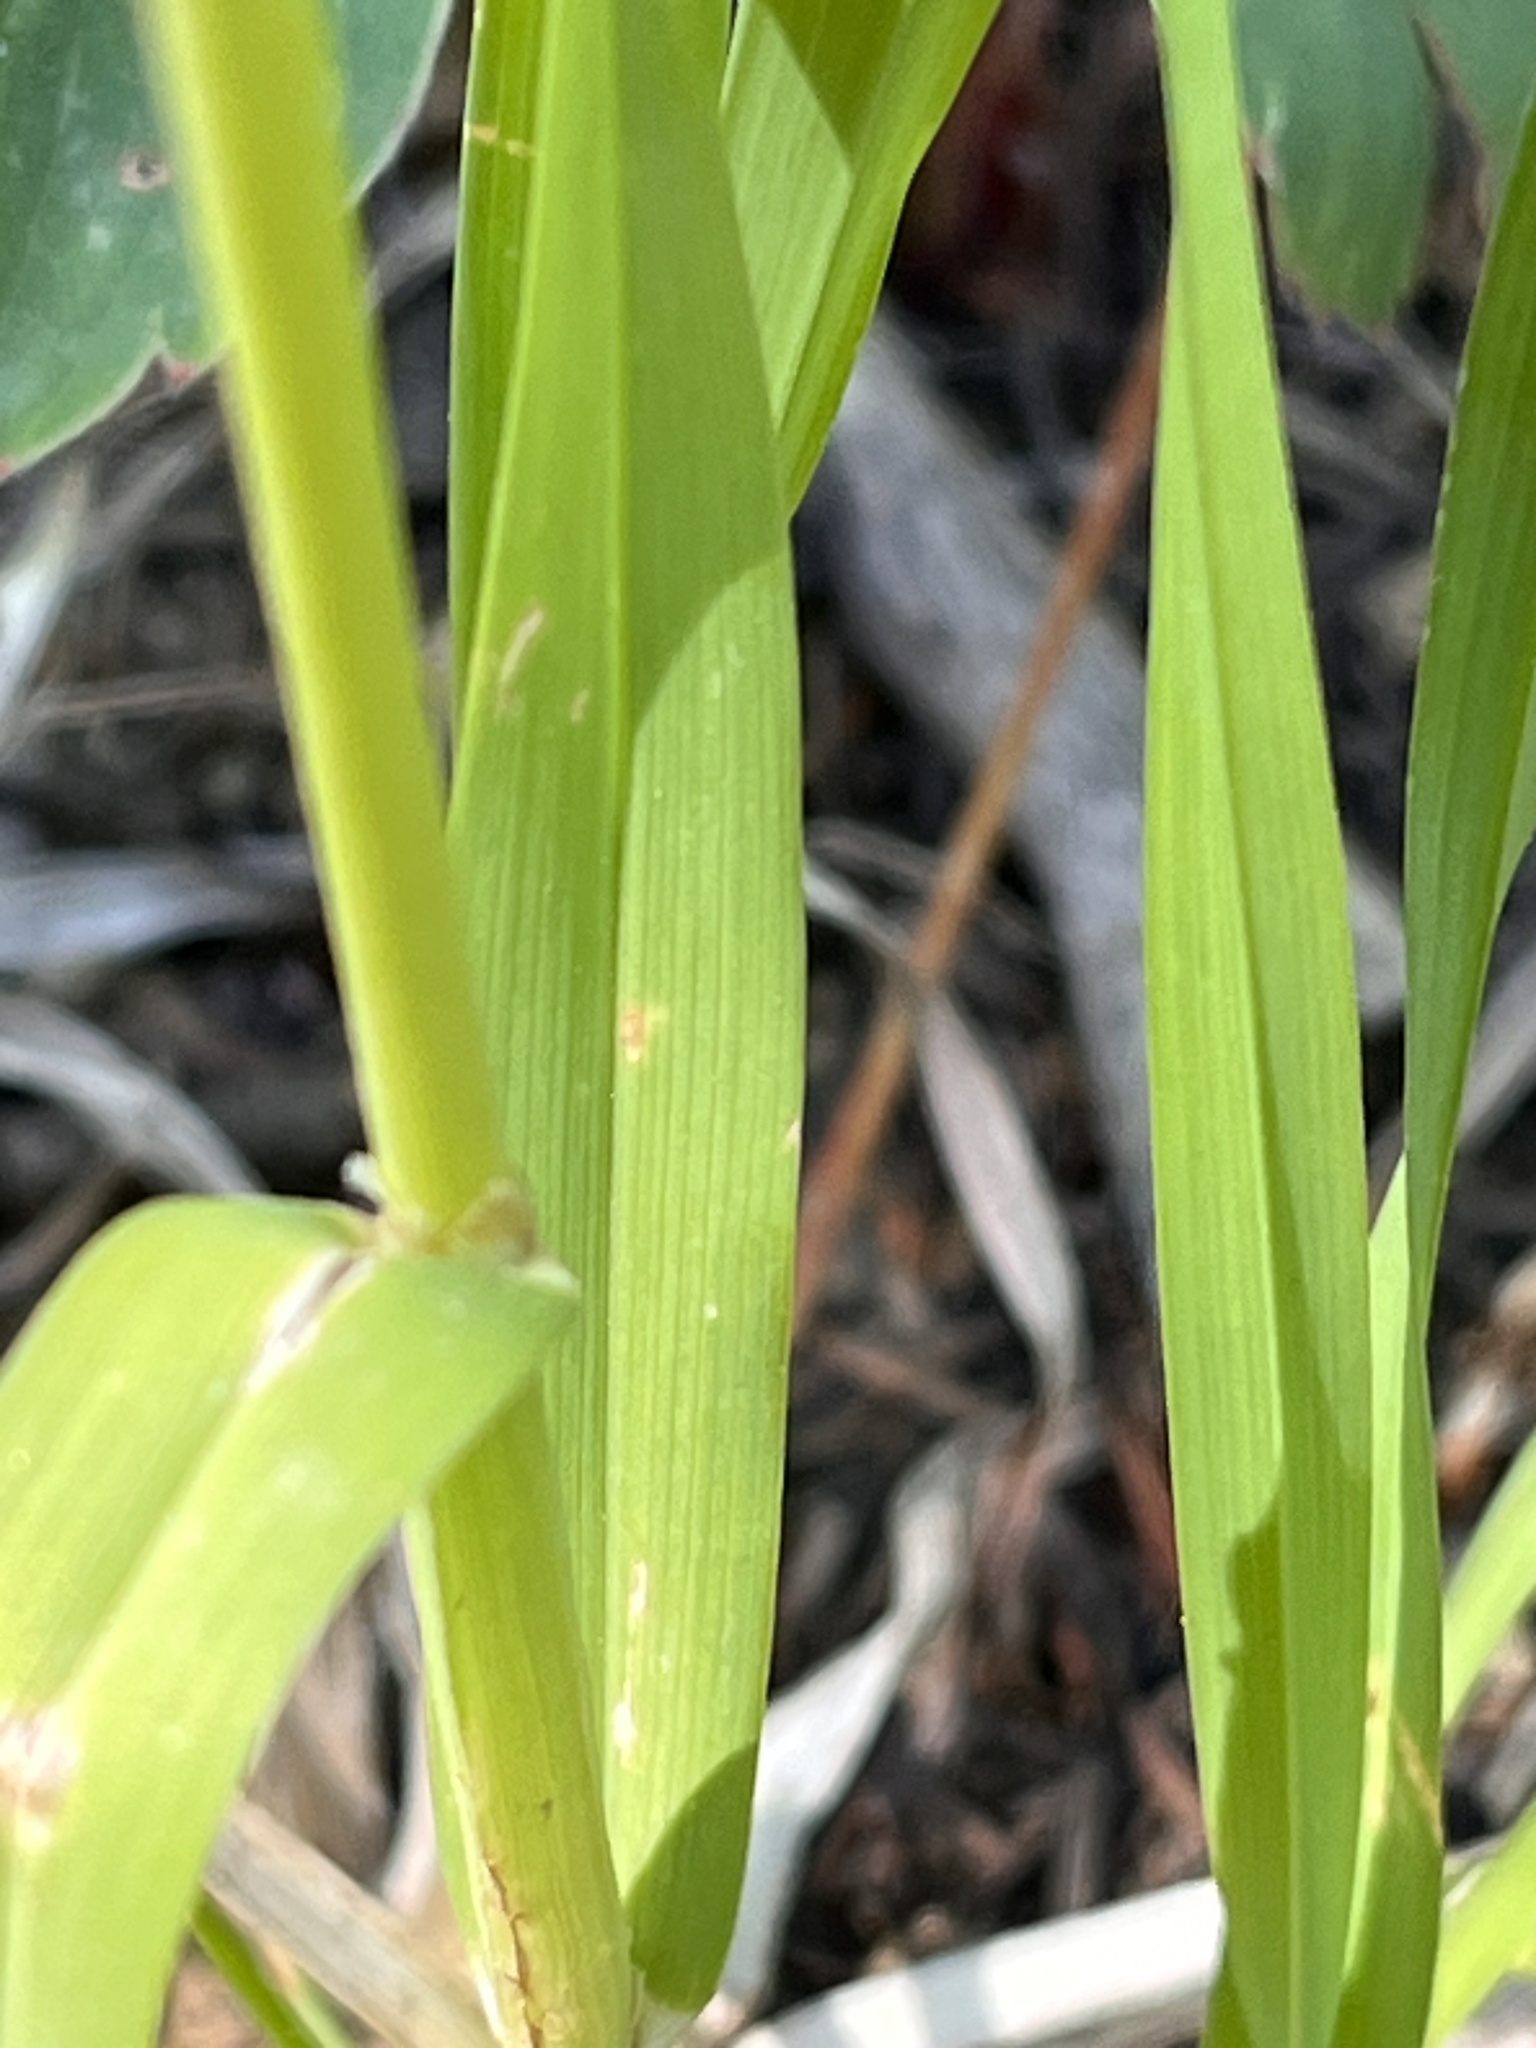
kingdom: Plantae
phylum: Tracheophyta
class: Liliopsida
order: Poales
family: Poaceae
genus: Dactylis
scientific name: Dactylis glomerata
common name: Orchardgrass
